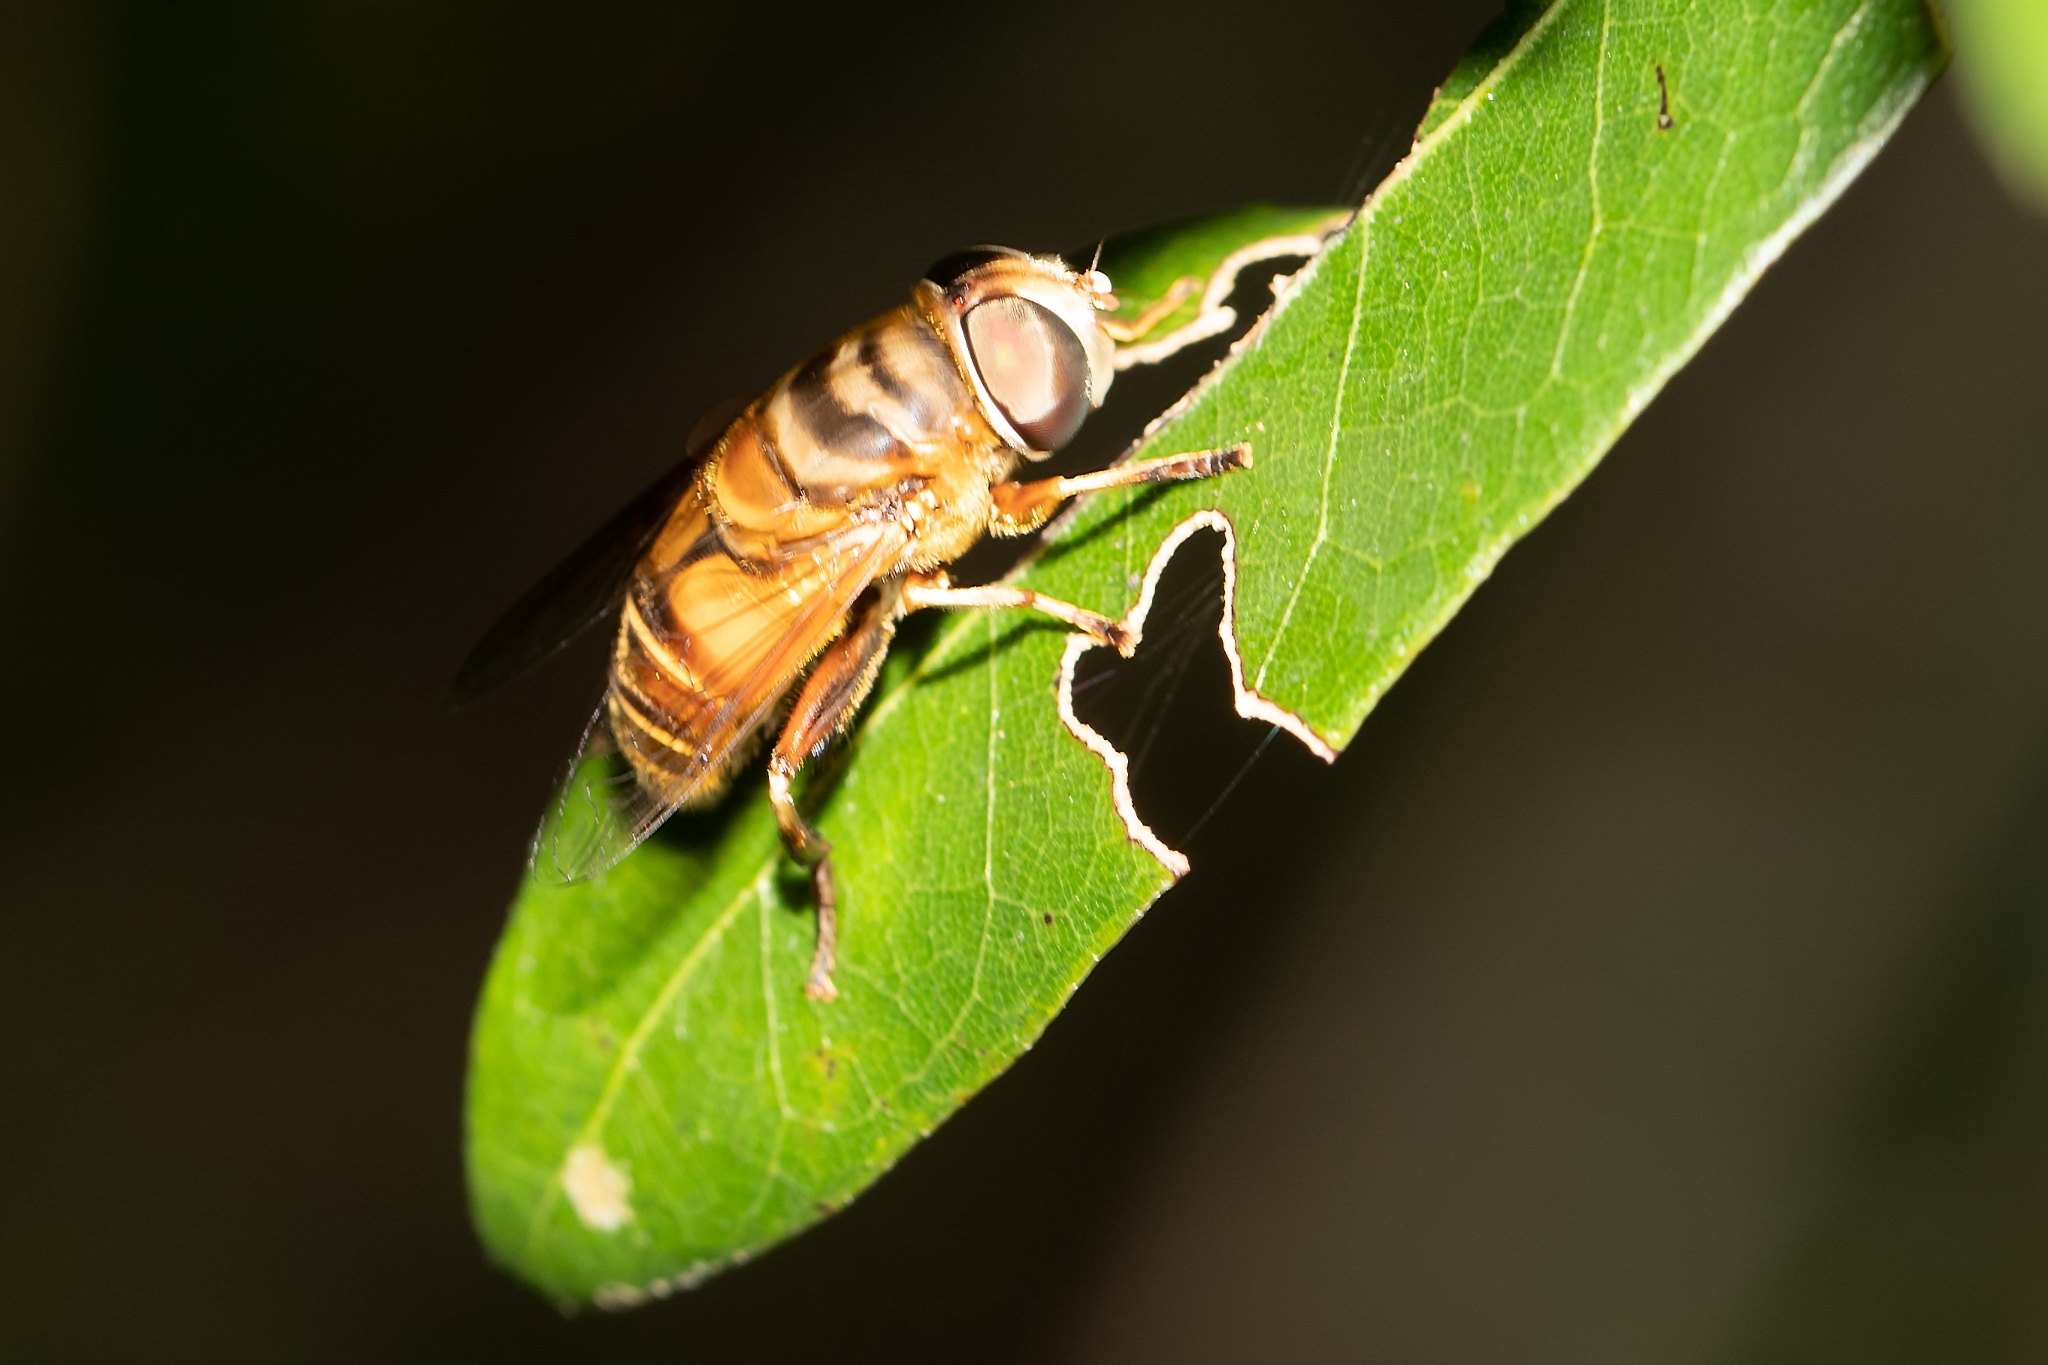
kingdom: Animalia
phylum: Arthropoda
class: Insecta
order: Diptera
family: Syrphidae
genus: Palpada
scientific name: Palpada vinetorum
